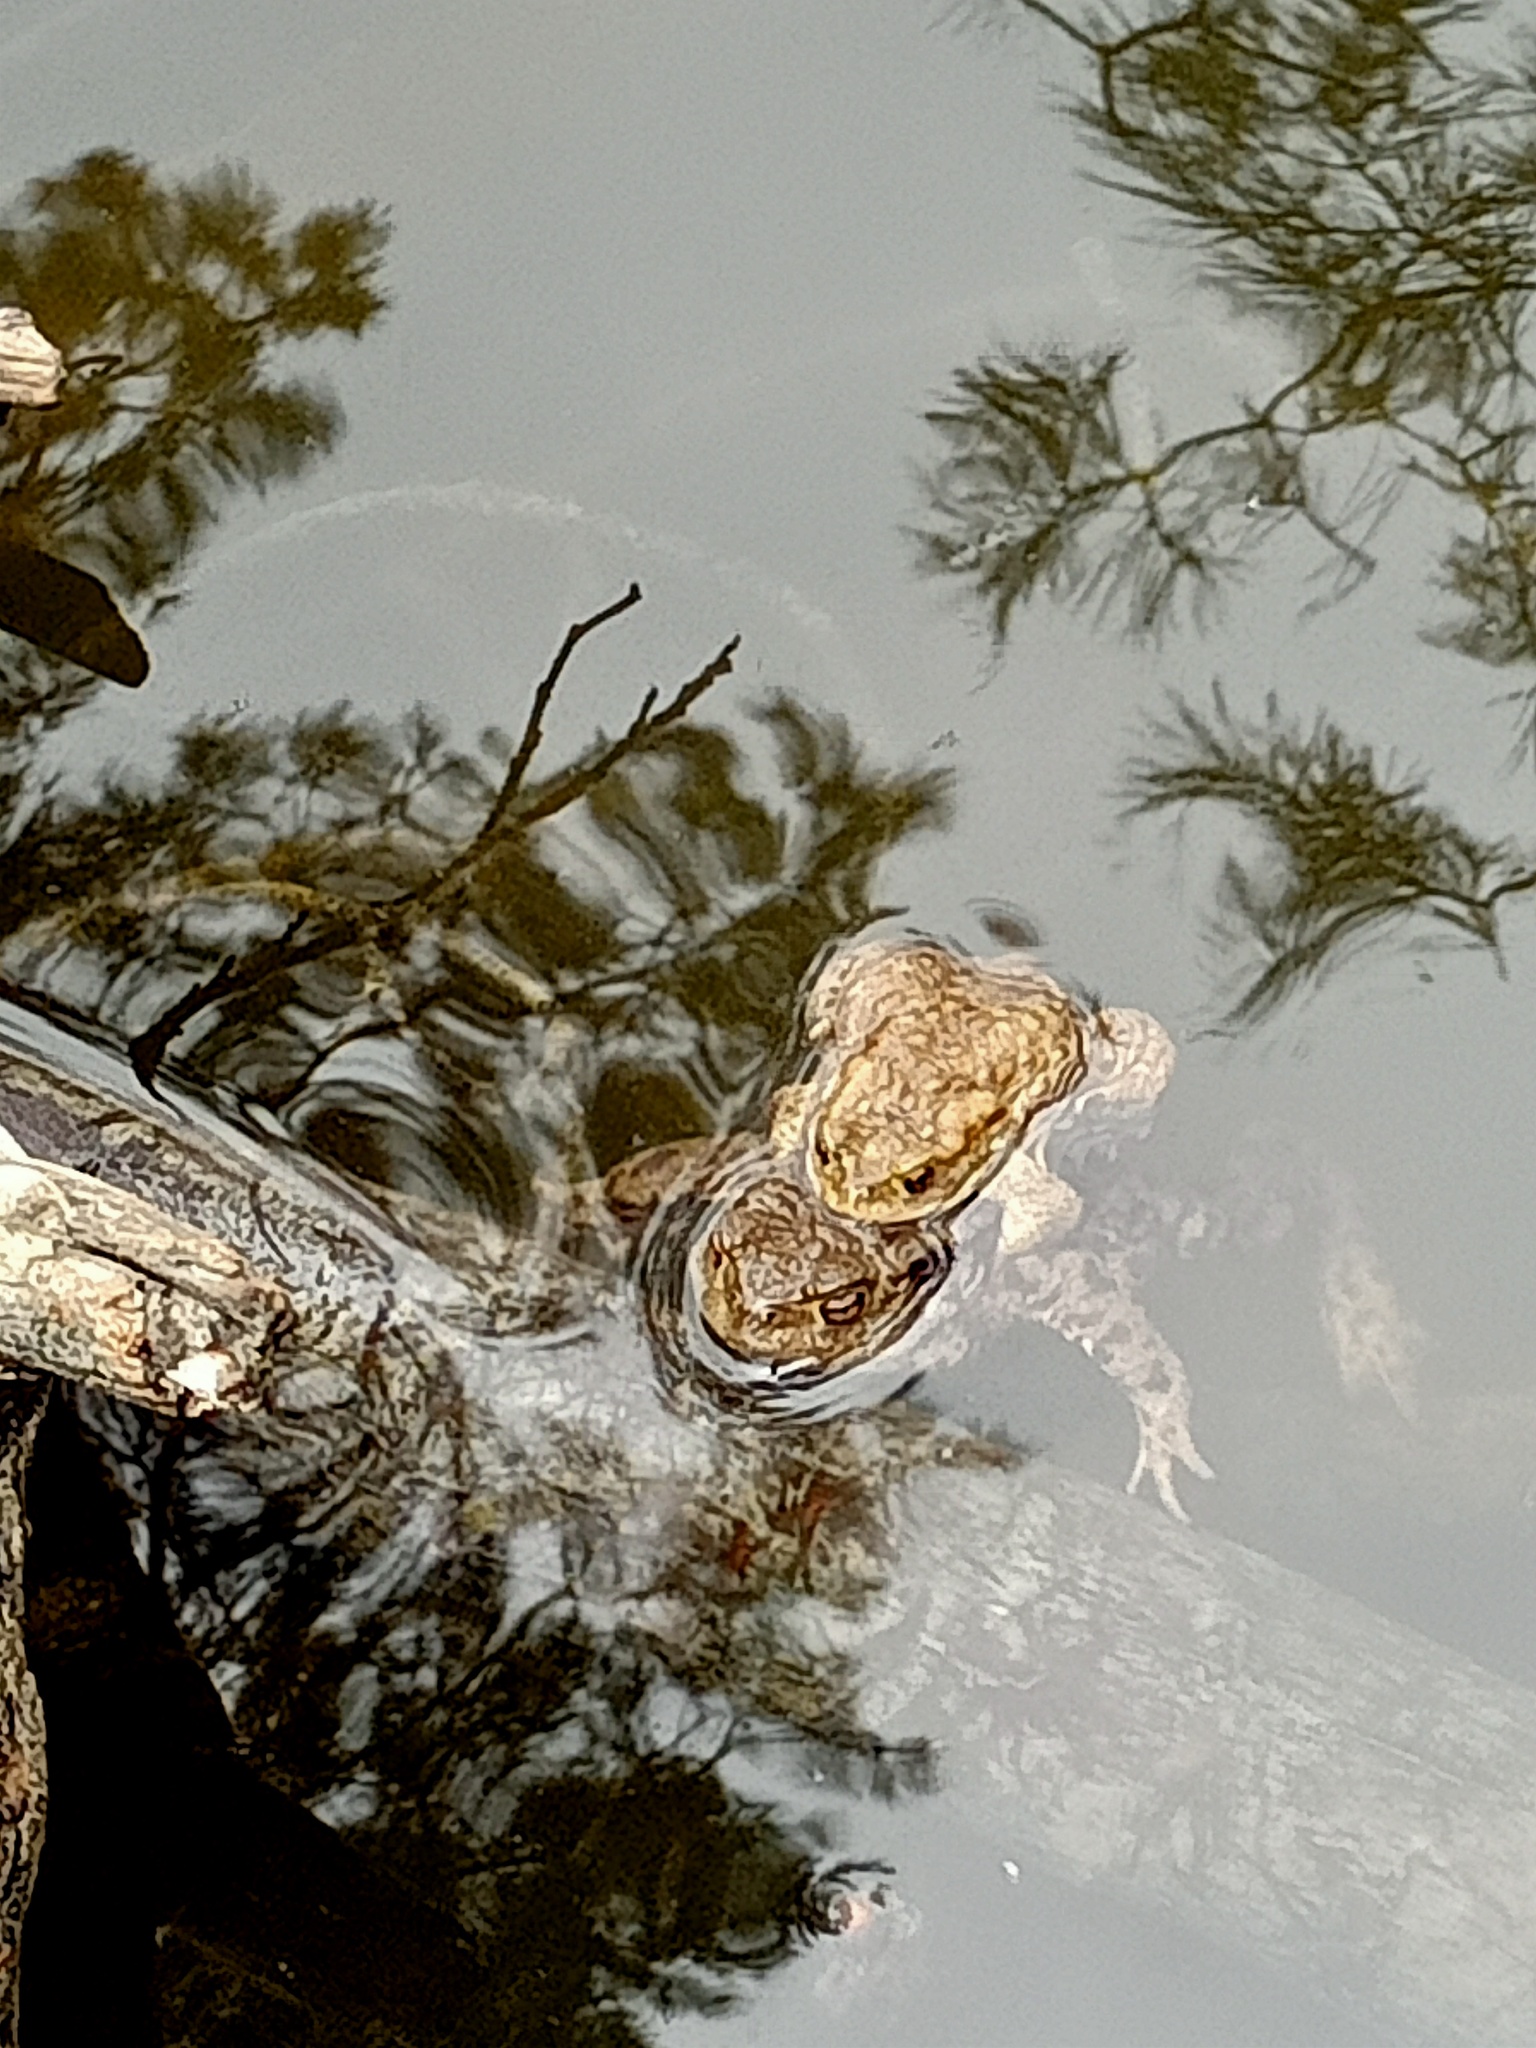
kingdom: Animalia
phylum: Chordata
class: Amphibia
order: Anura
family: Bufonidae
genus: Bufo
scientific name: Bufo bufo
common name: Common toad
